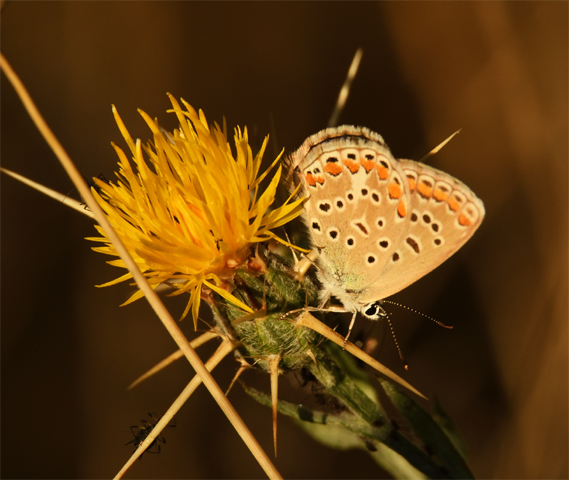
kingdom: Animalia
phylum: Arthropoda
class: Insecta
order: Lepidoptera
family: Lycaenidae
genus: Polyommatus
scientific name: Polyommatus icarus
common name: Common blue
